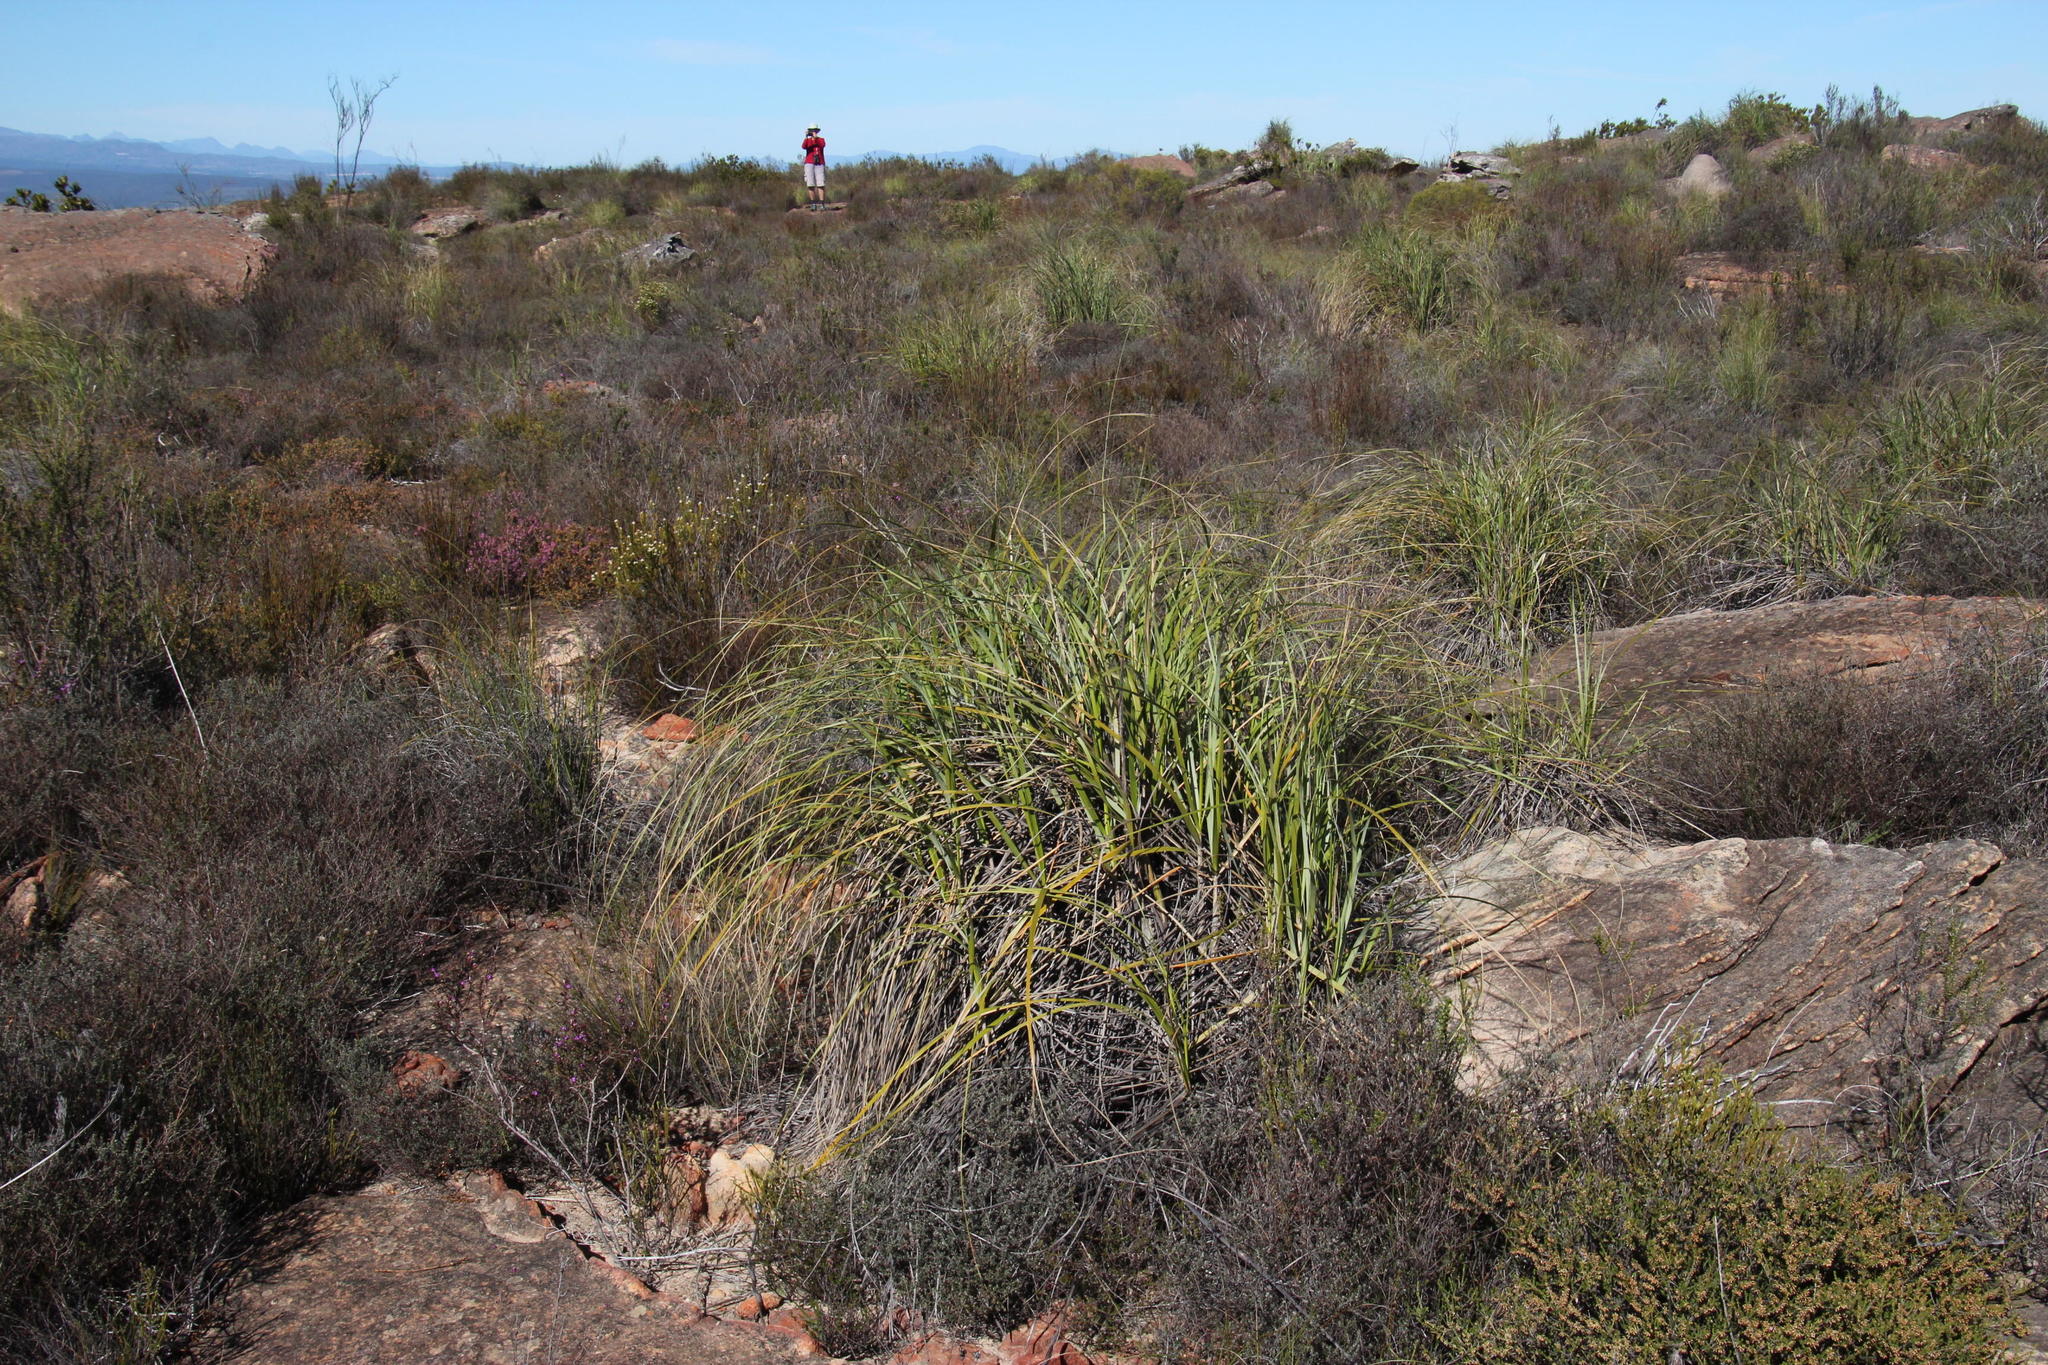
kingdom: Plantae
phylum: Tracheophyta
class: Liliopsida
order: Poales
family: Cyperaceae
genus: Cyperus
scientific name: Cyperus thunbergii
